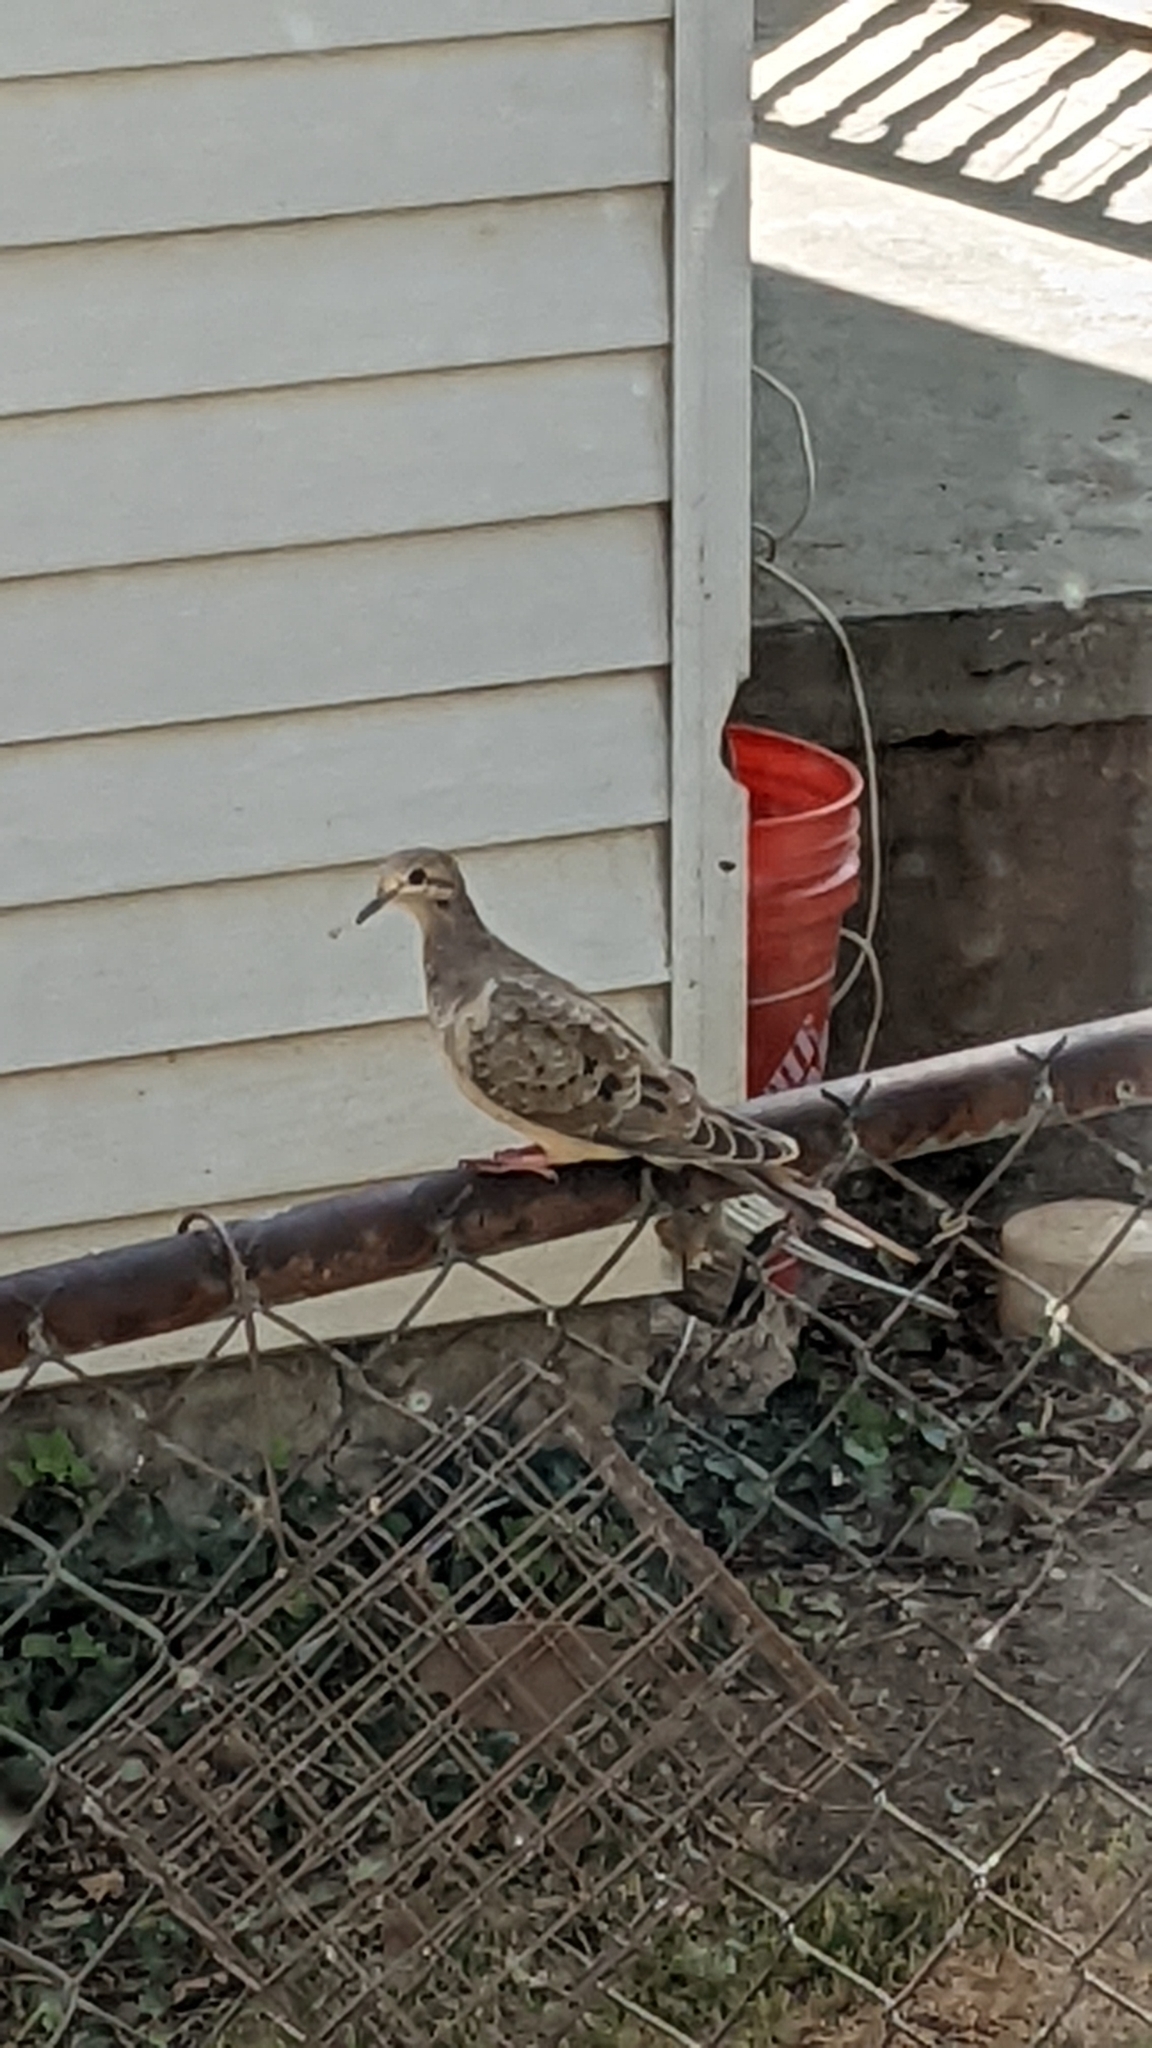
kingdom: Animalia
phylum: Chordata
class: Aves
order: Columbiformes
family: Columbidae
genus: Zenaida
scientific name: Zenaida macroura
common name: Mourning dove
